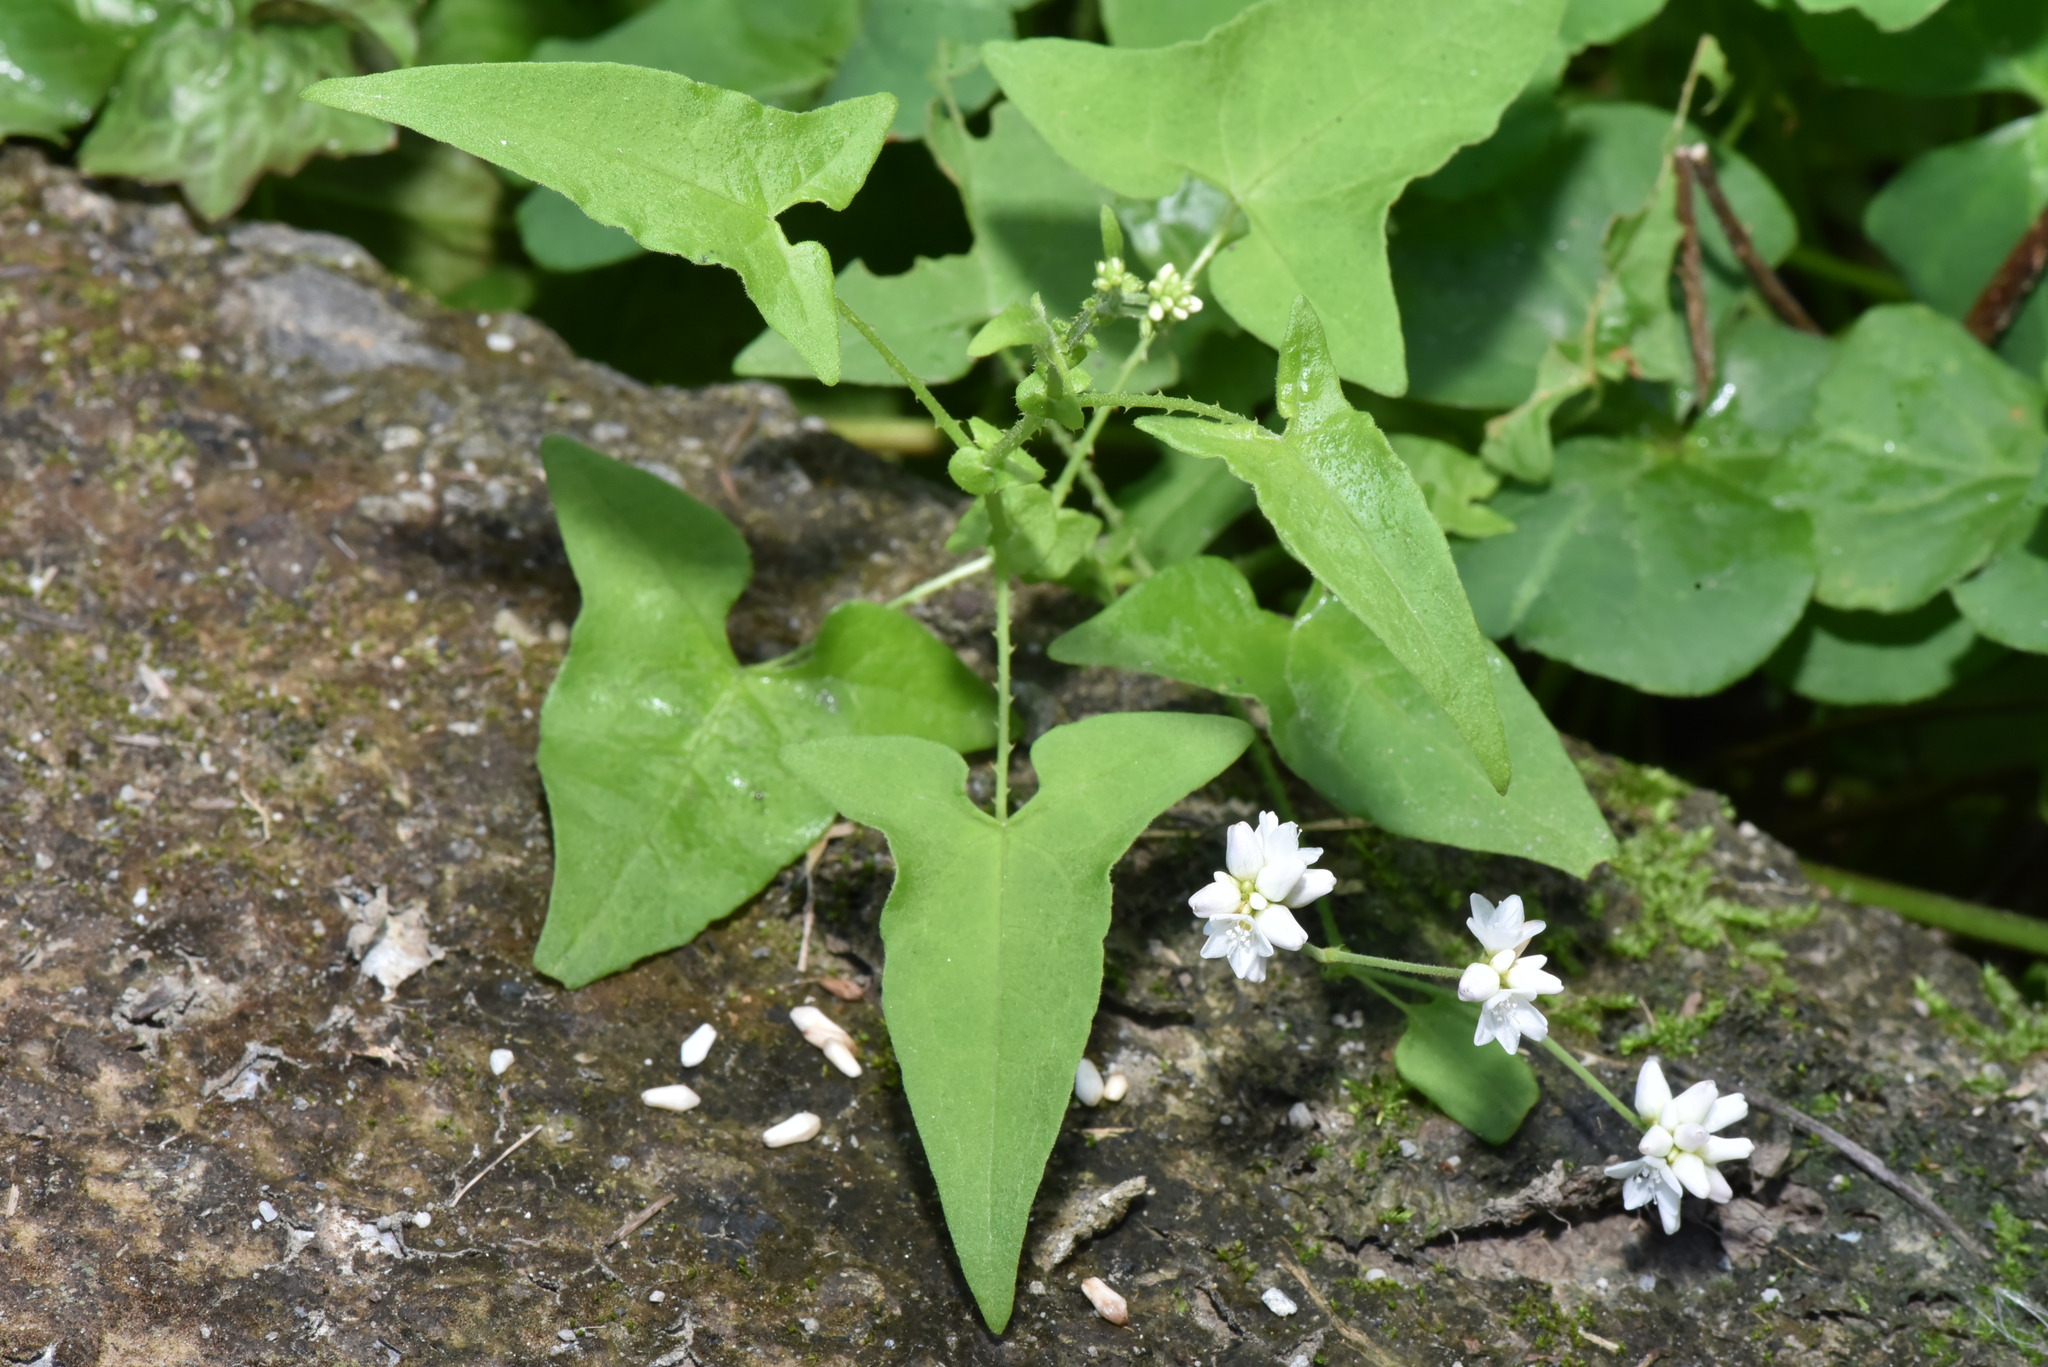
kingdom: Plantae
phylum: Tracheophyta
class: Magnoliopsida
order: Caryophyllales
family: Polygonaceae
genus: Persicaria
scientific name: Persicaria biconvexa
